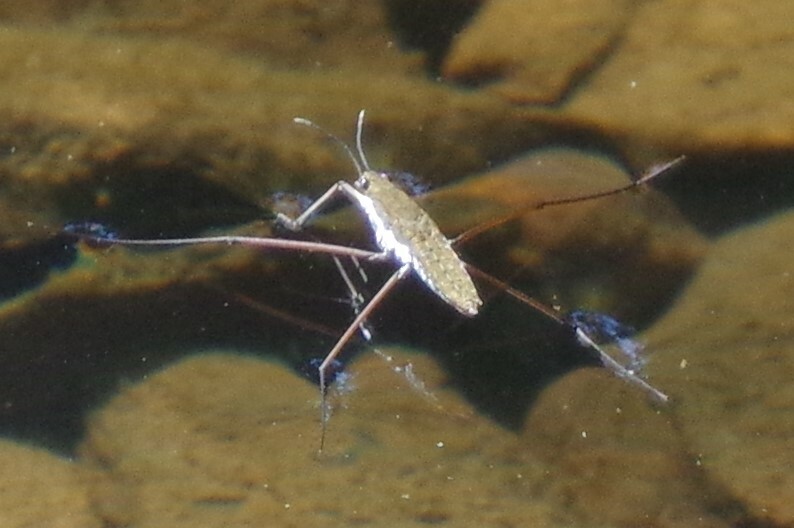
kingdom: Animalia
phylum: Arthropoda
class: Insecta
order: Hemiptera
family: Gerridae
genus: Aquarius
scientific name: Aquarius remigis
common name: Common water strider
